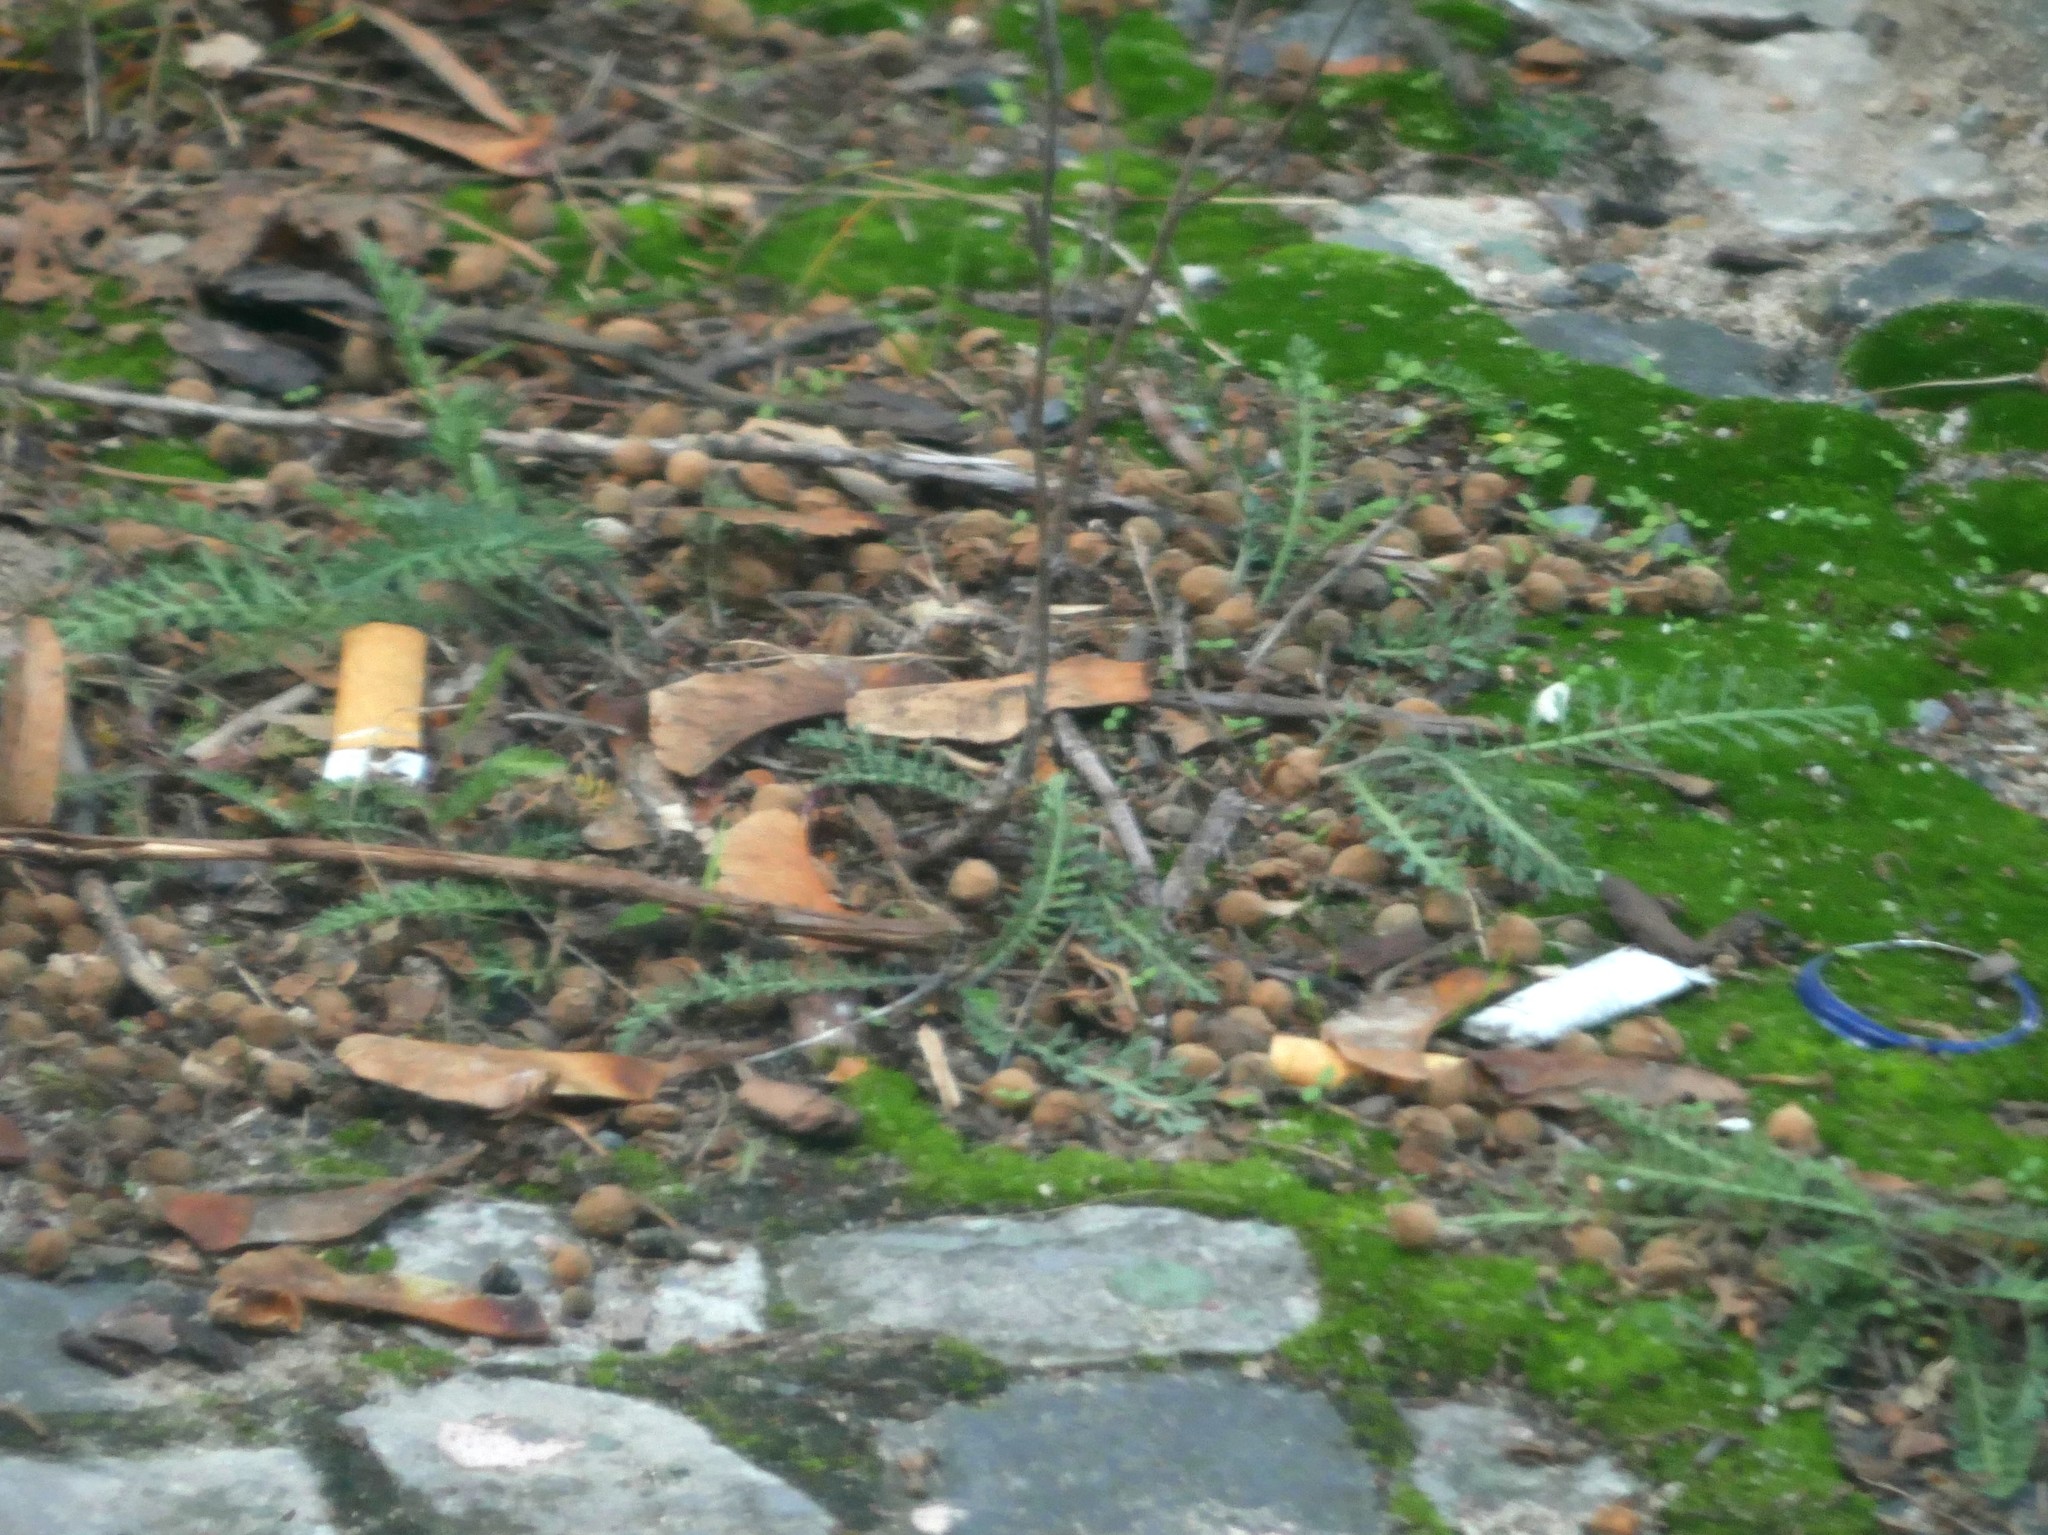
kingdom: Plantae
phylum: Tracheophyta
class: Magnoliopsida
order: Asterales
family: Asteraceae
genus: Achillea
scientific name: Achillea millefolium
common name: Yarrow
